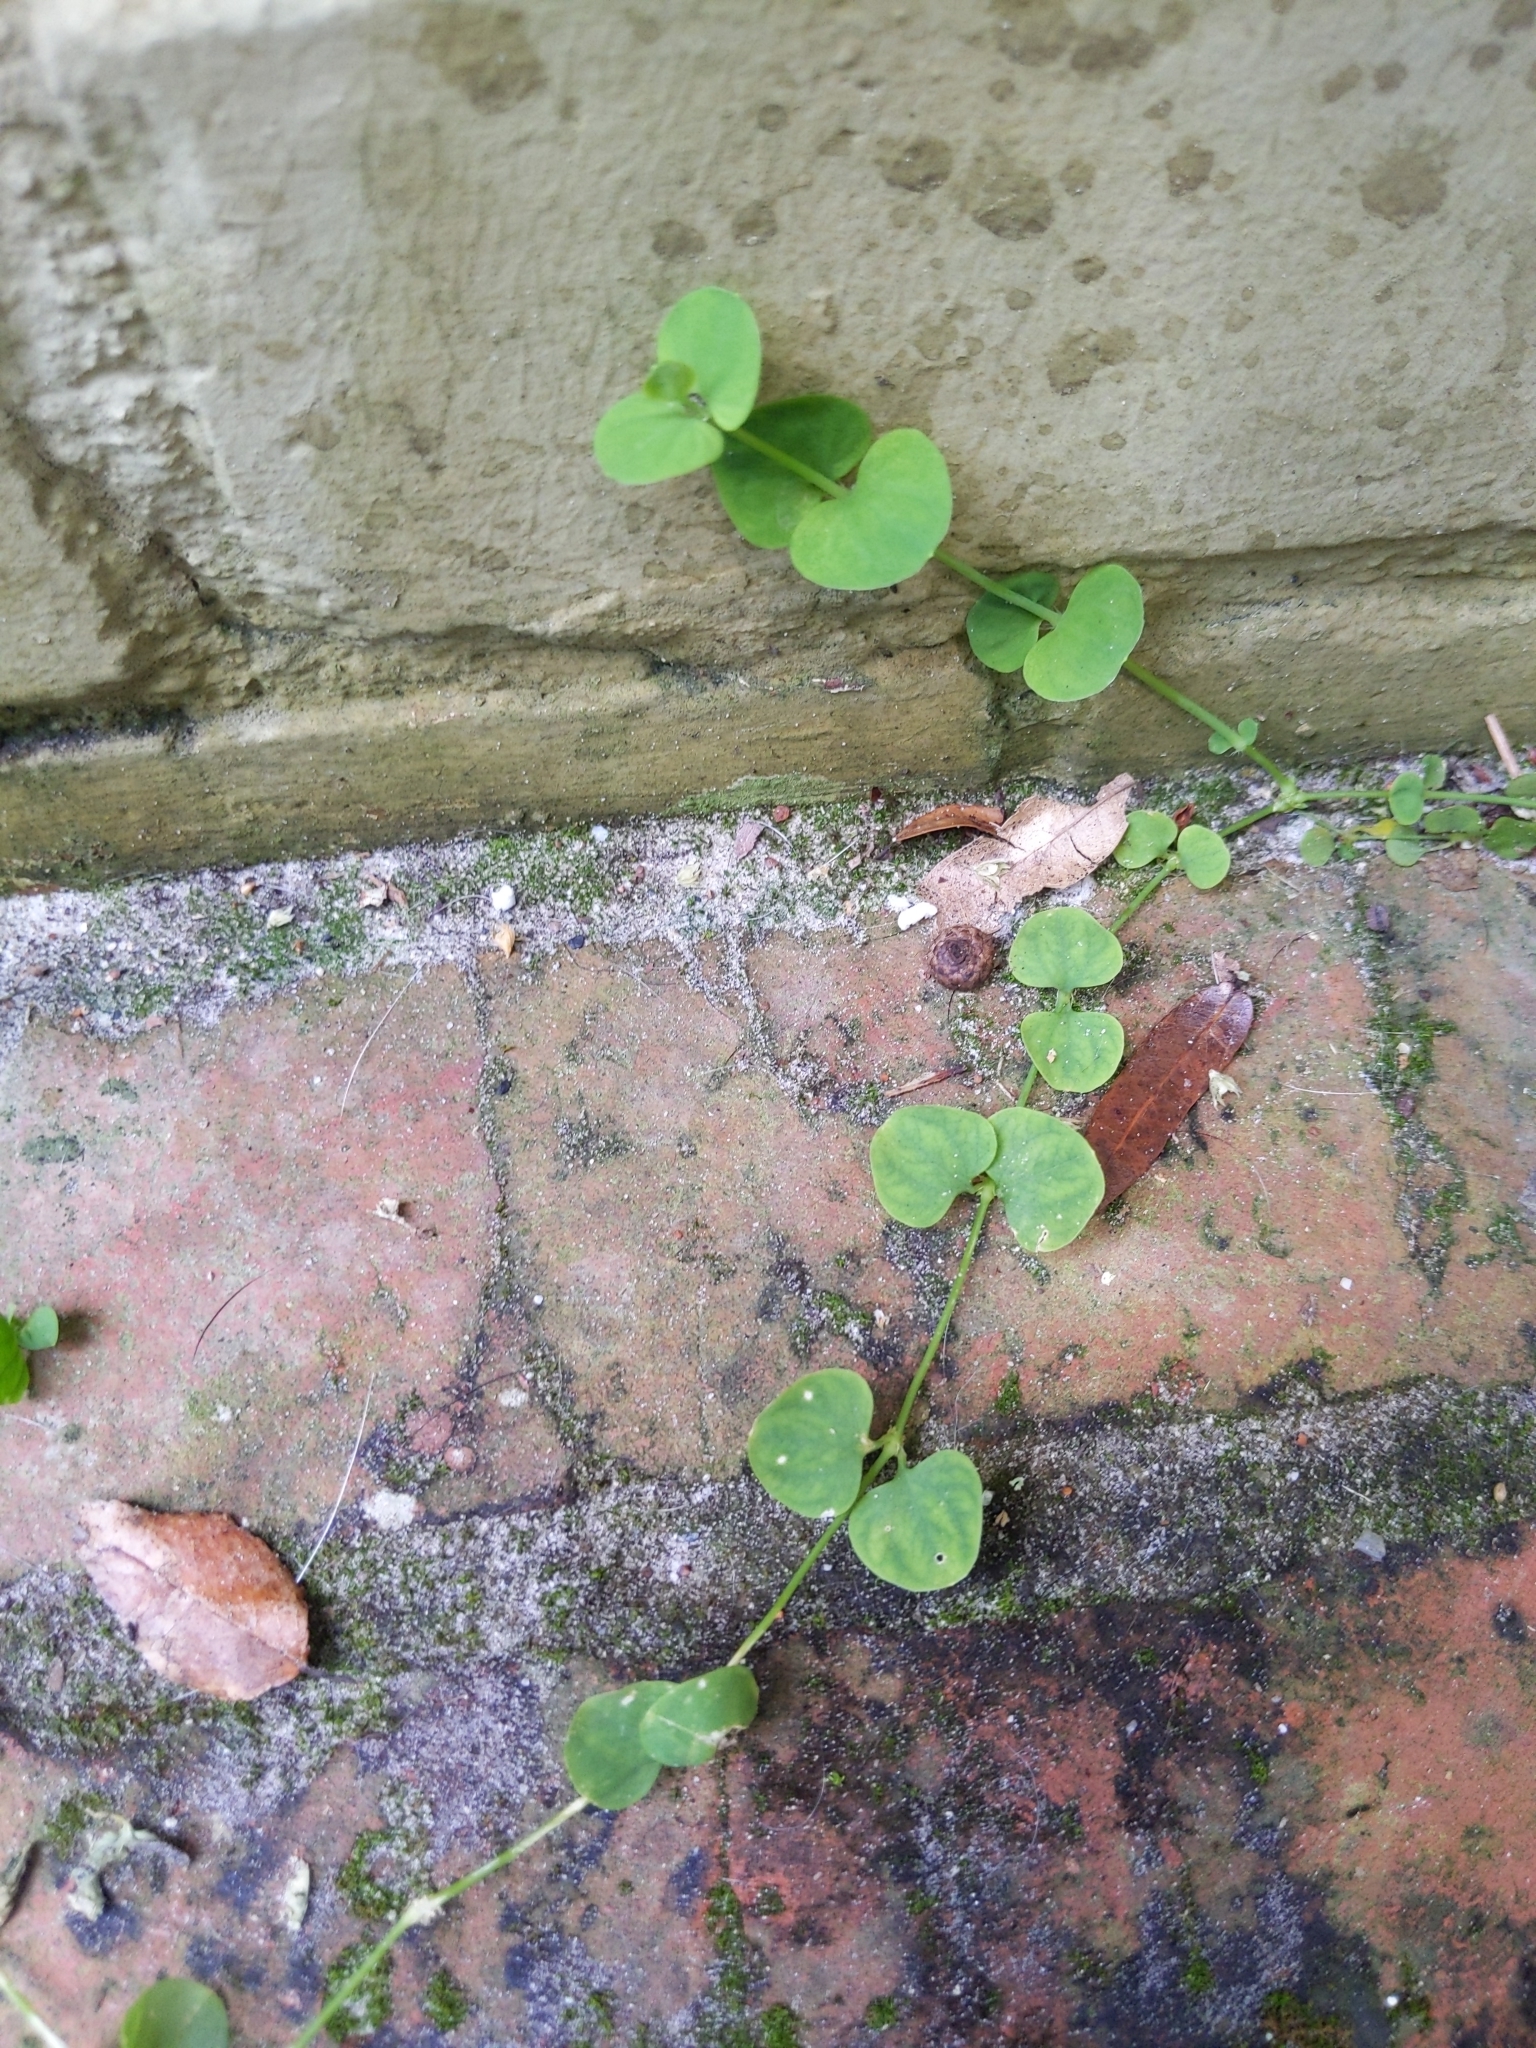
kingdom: Plantae
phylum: Tracheophyta
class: Magnoliopsida
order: Caryophyllales
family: Caryophyllaceae
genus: Drymaria
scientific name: Drymaria cordata
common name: Whitesnow
